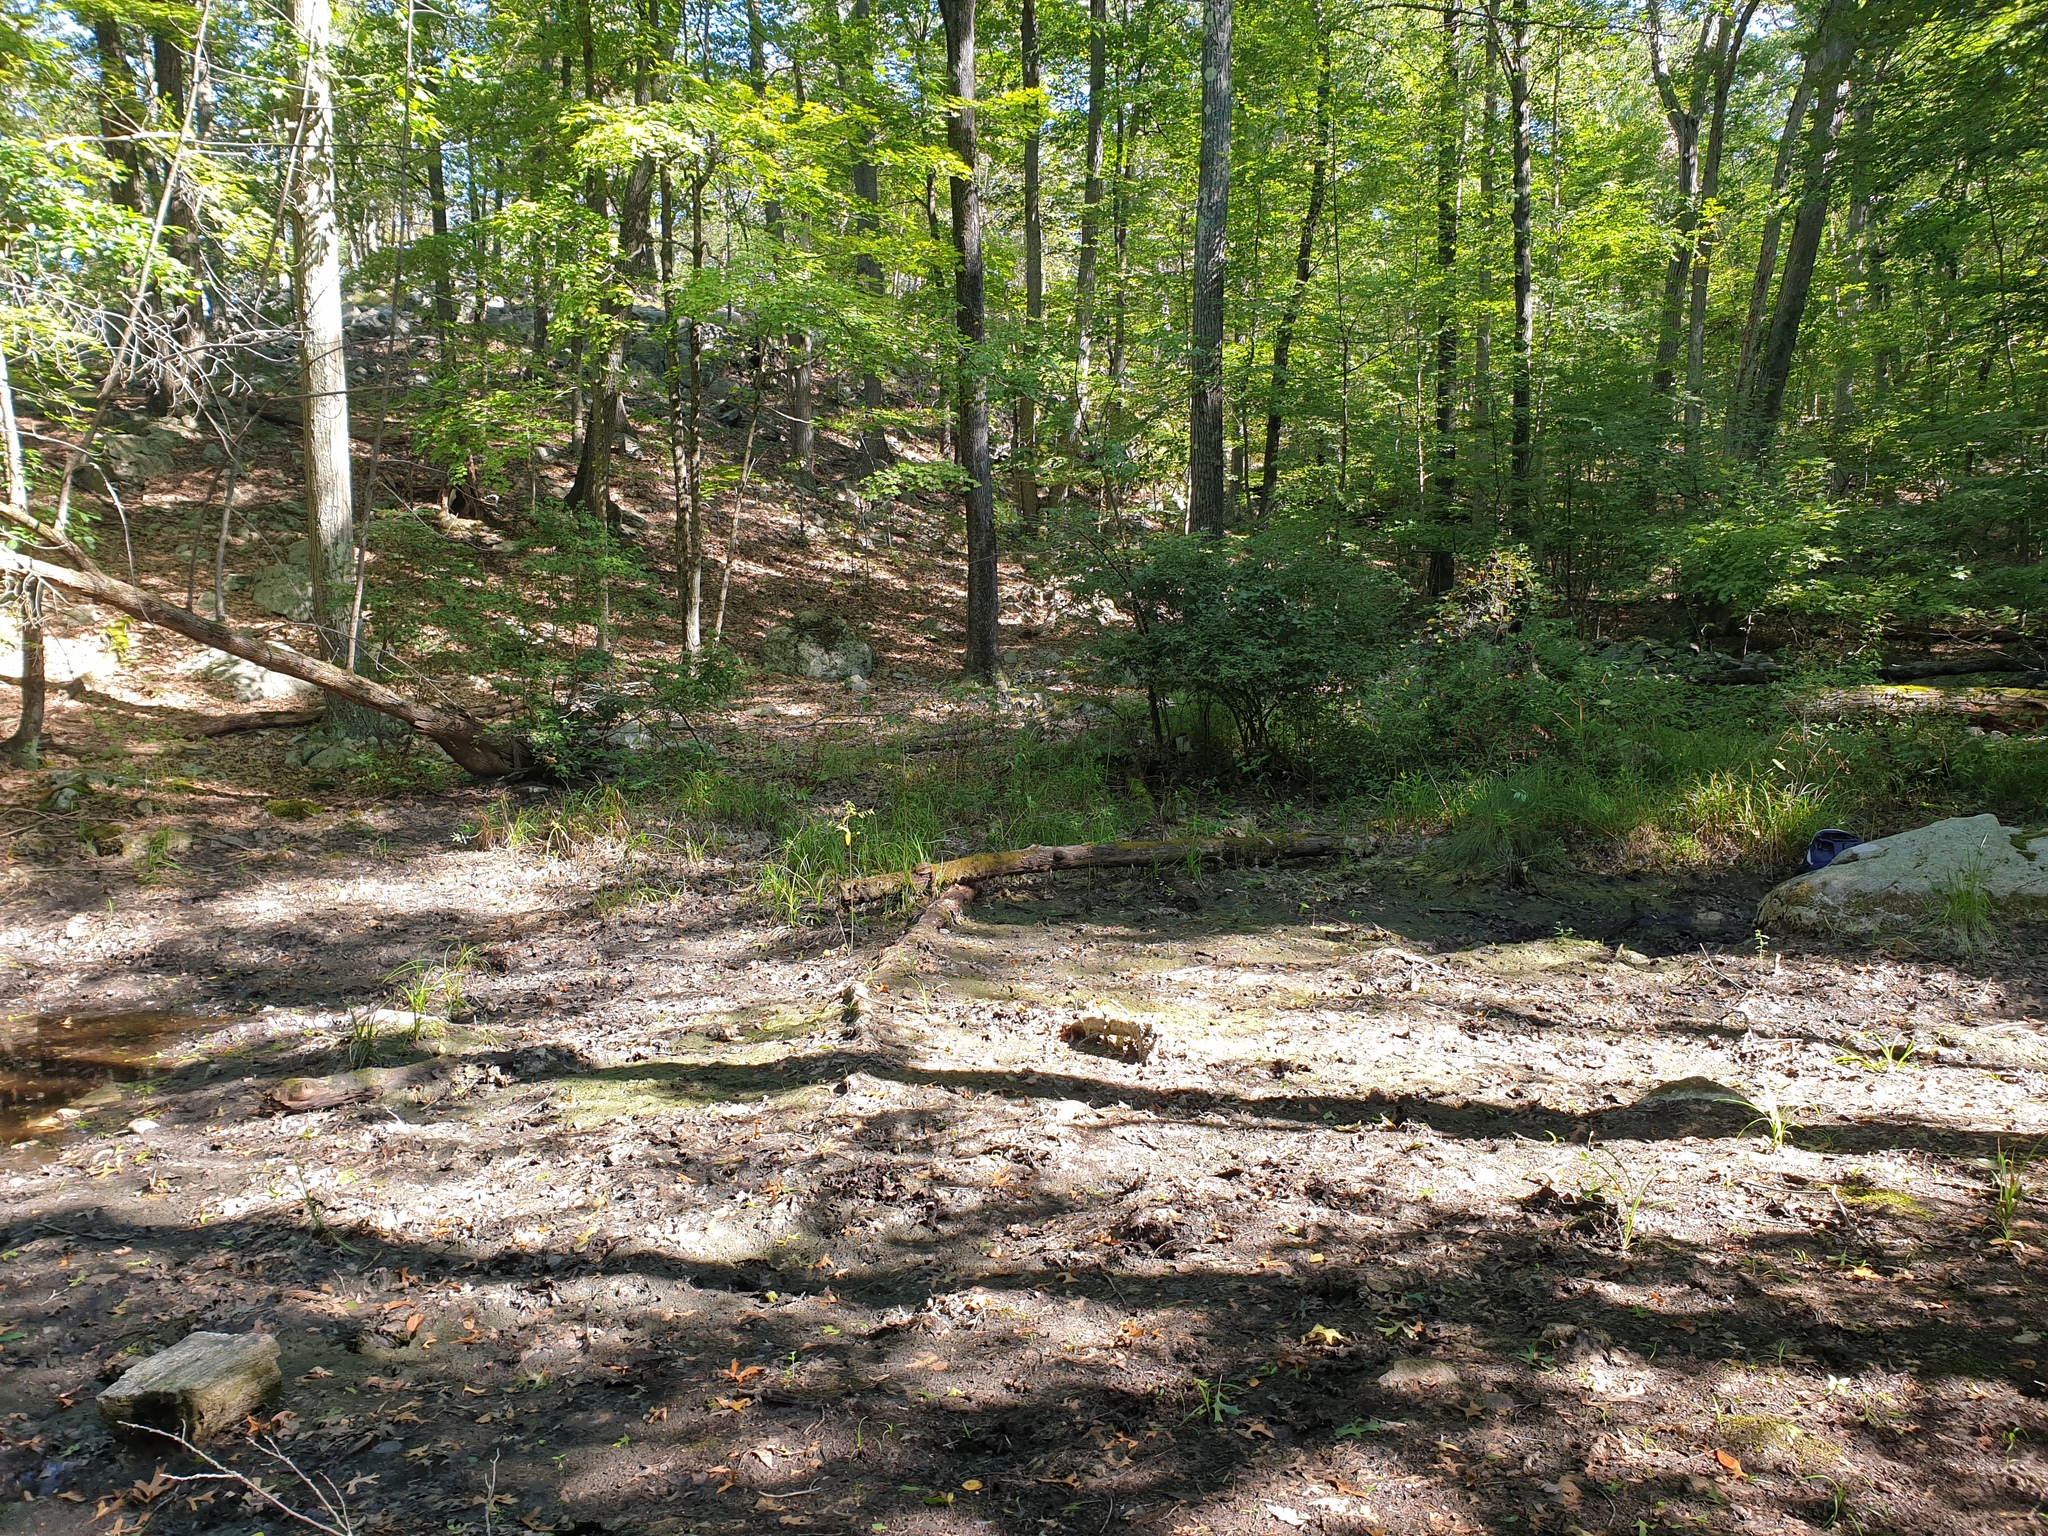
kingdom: Plantae
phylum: Tracheophyta
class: Liliopsida
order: Poales
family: Cyperaceae
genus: Carex
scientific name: Carex lupuliformis
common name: False hop sedge
